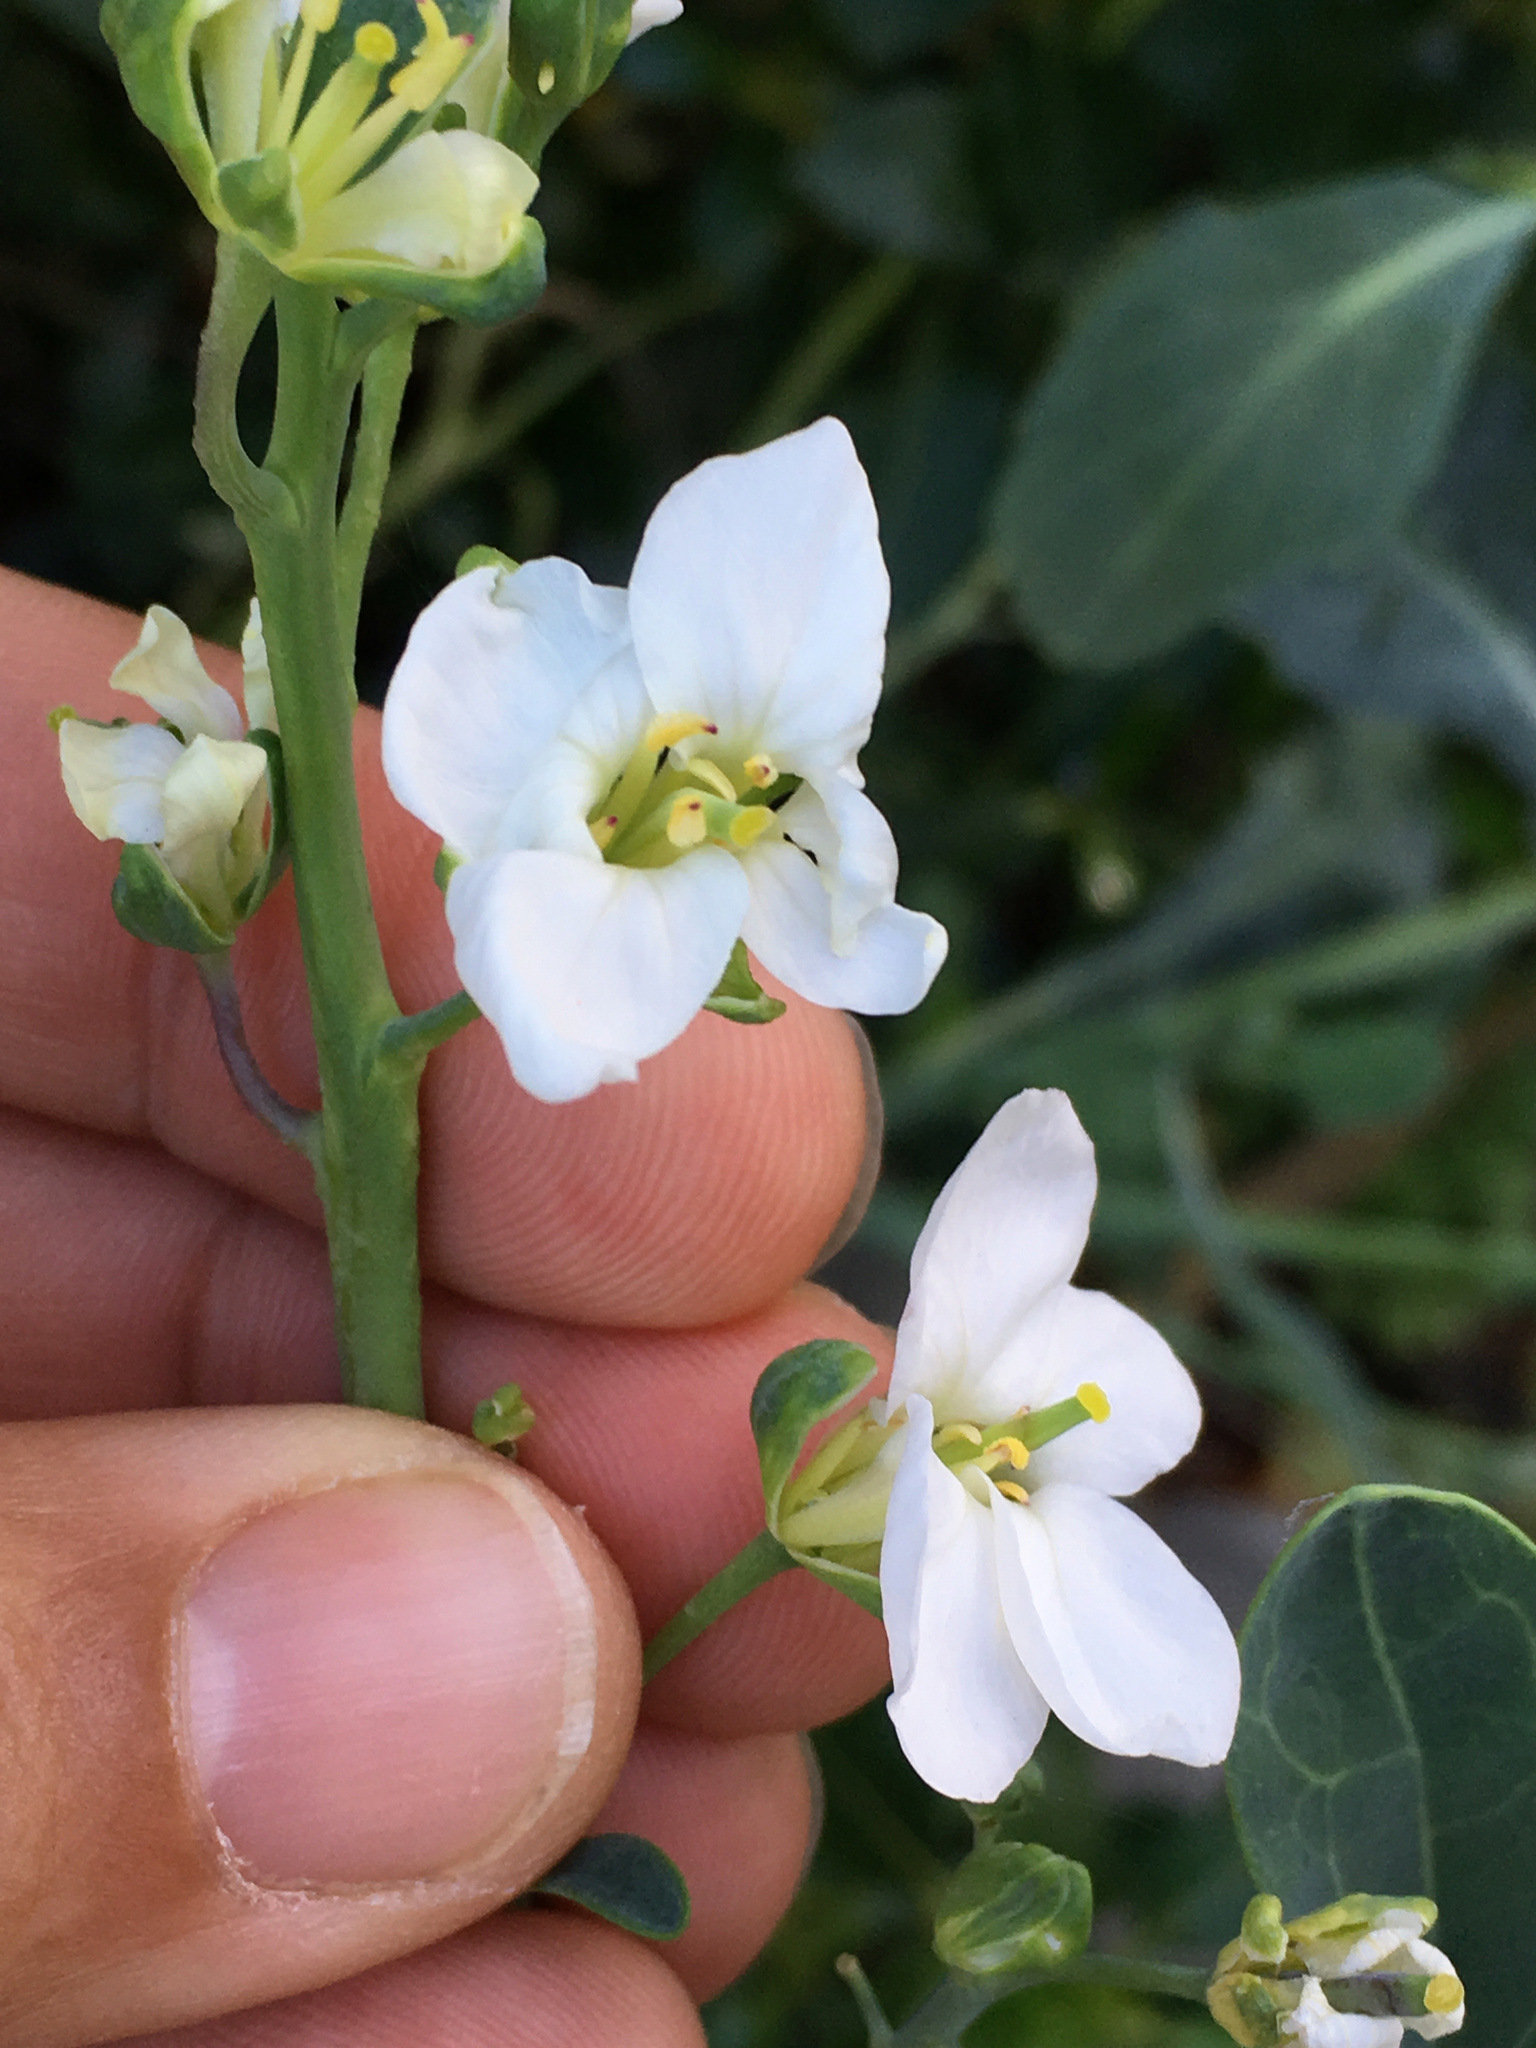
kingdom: Plantae
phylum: Tracheophyta
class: Magnoliopsida
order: Brassicales
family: Brassicaceae
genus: Brassica
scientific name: Brassica oleracea
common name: Cabbage
